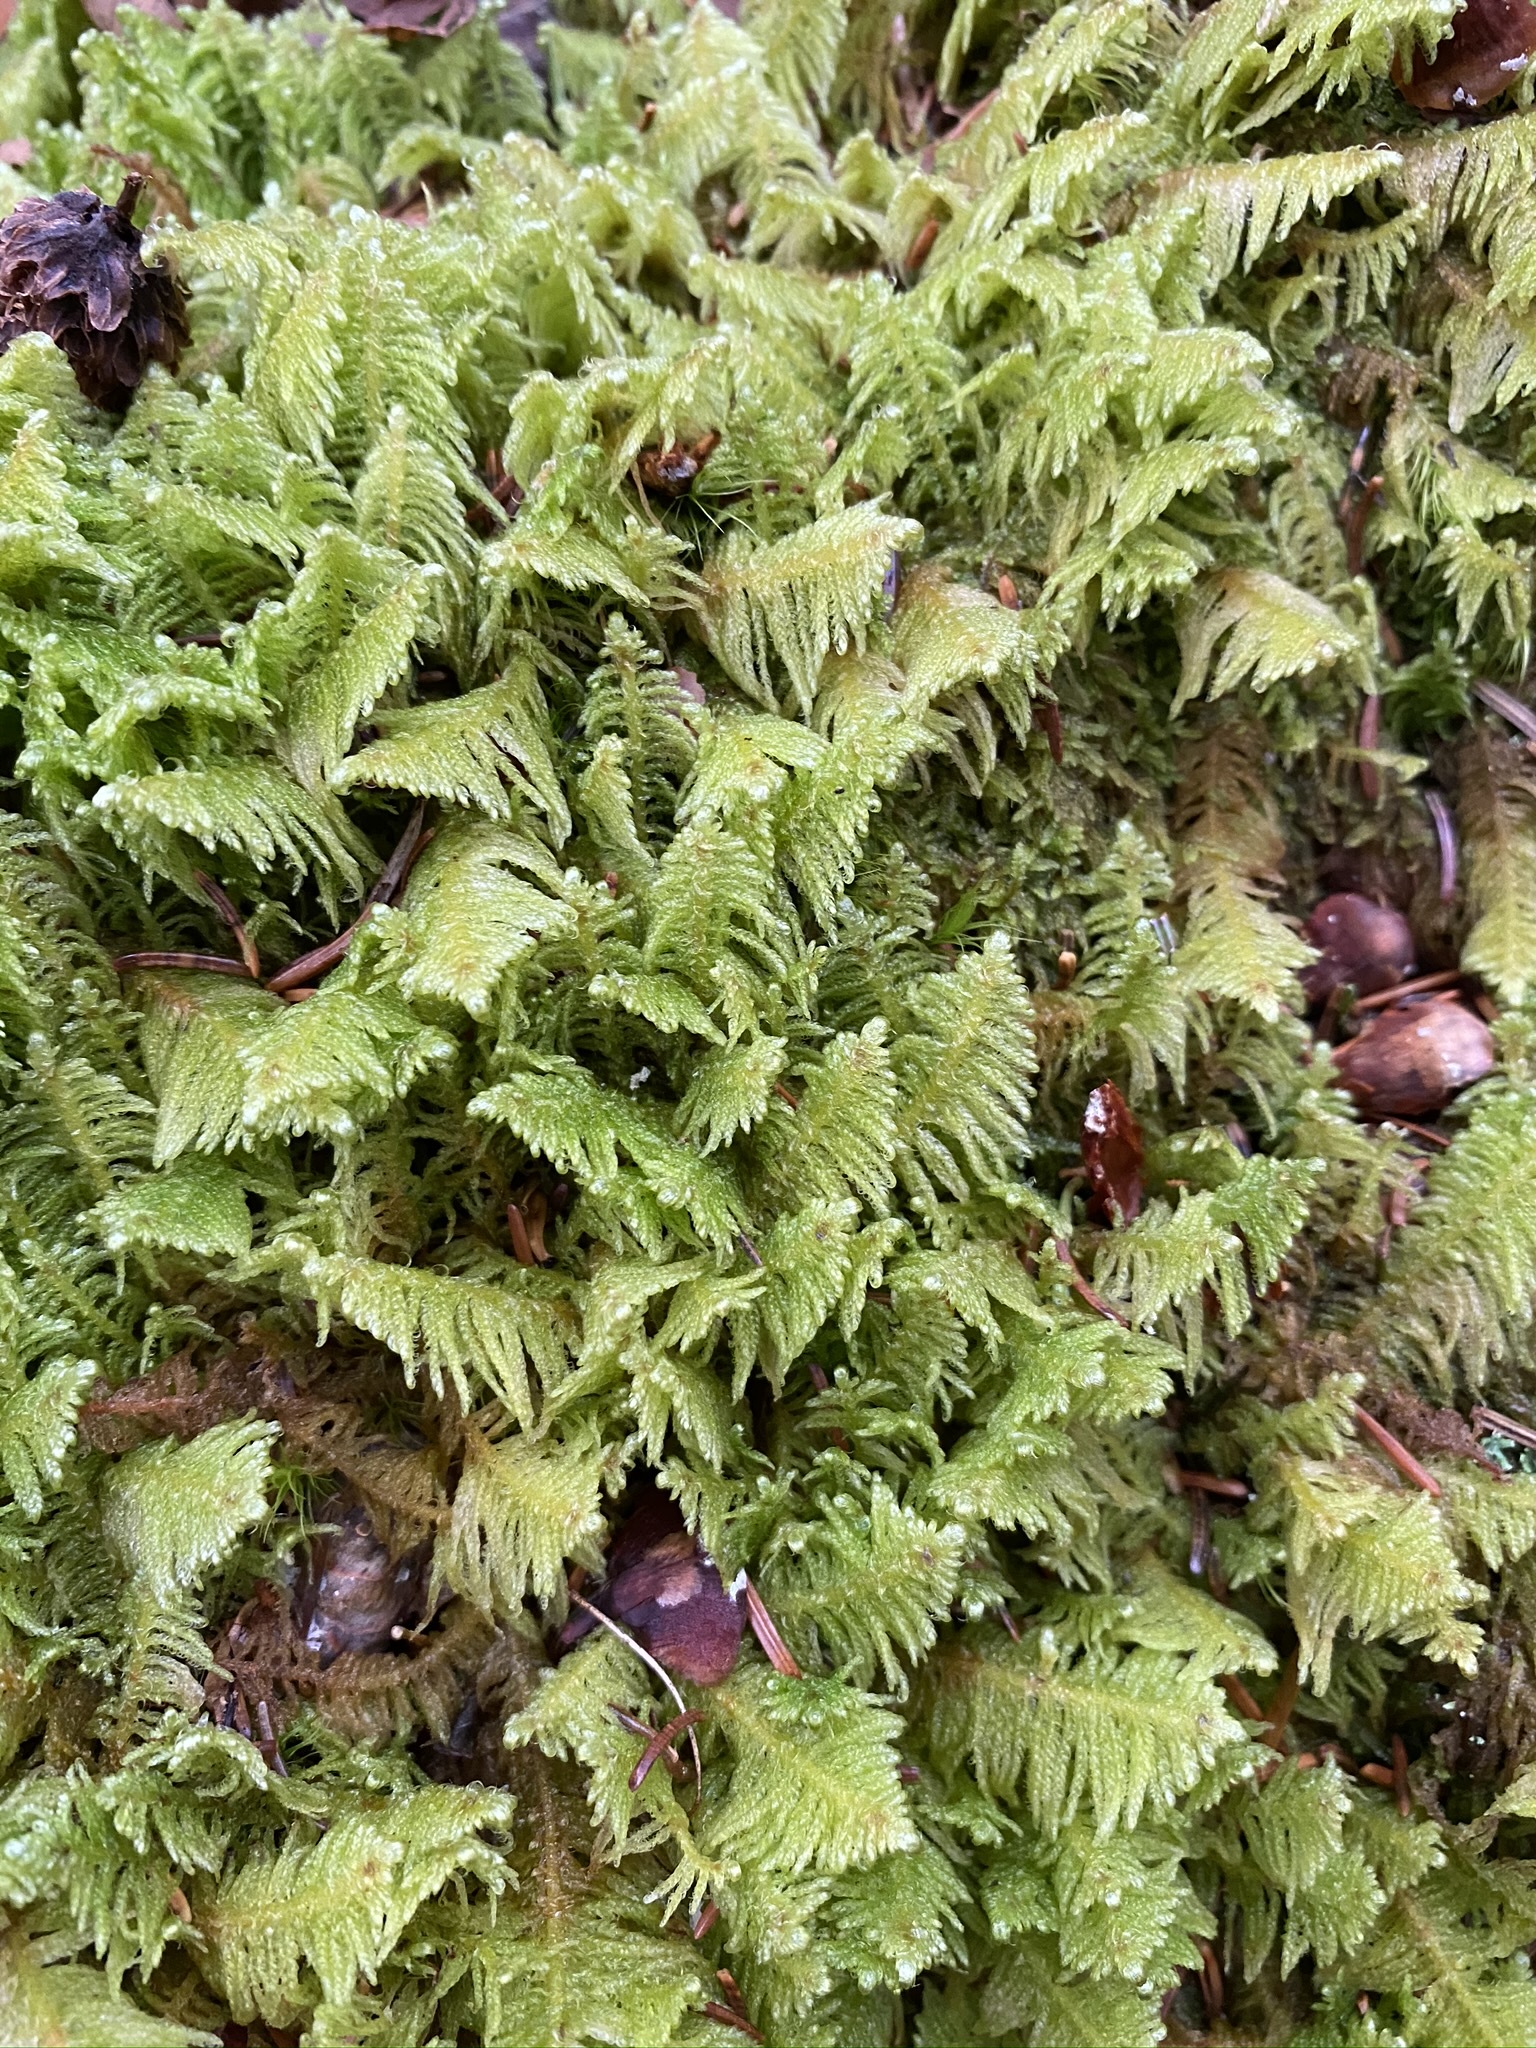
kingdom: Plantae
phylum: Bryophyta
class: Bryopsida
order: Hypnales
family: Pylaisiaceae
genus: Ptilium
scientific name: Ptilium crista-castrensis
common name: Knight's plume moss
